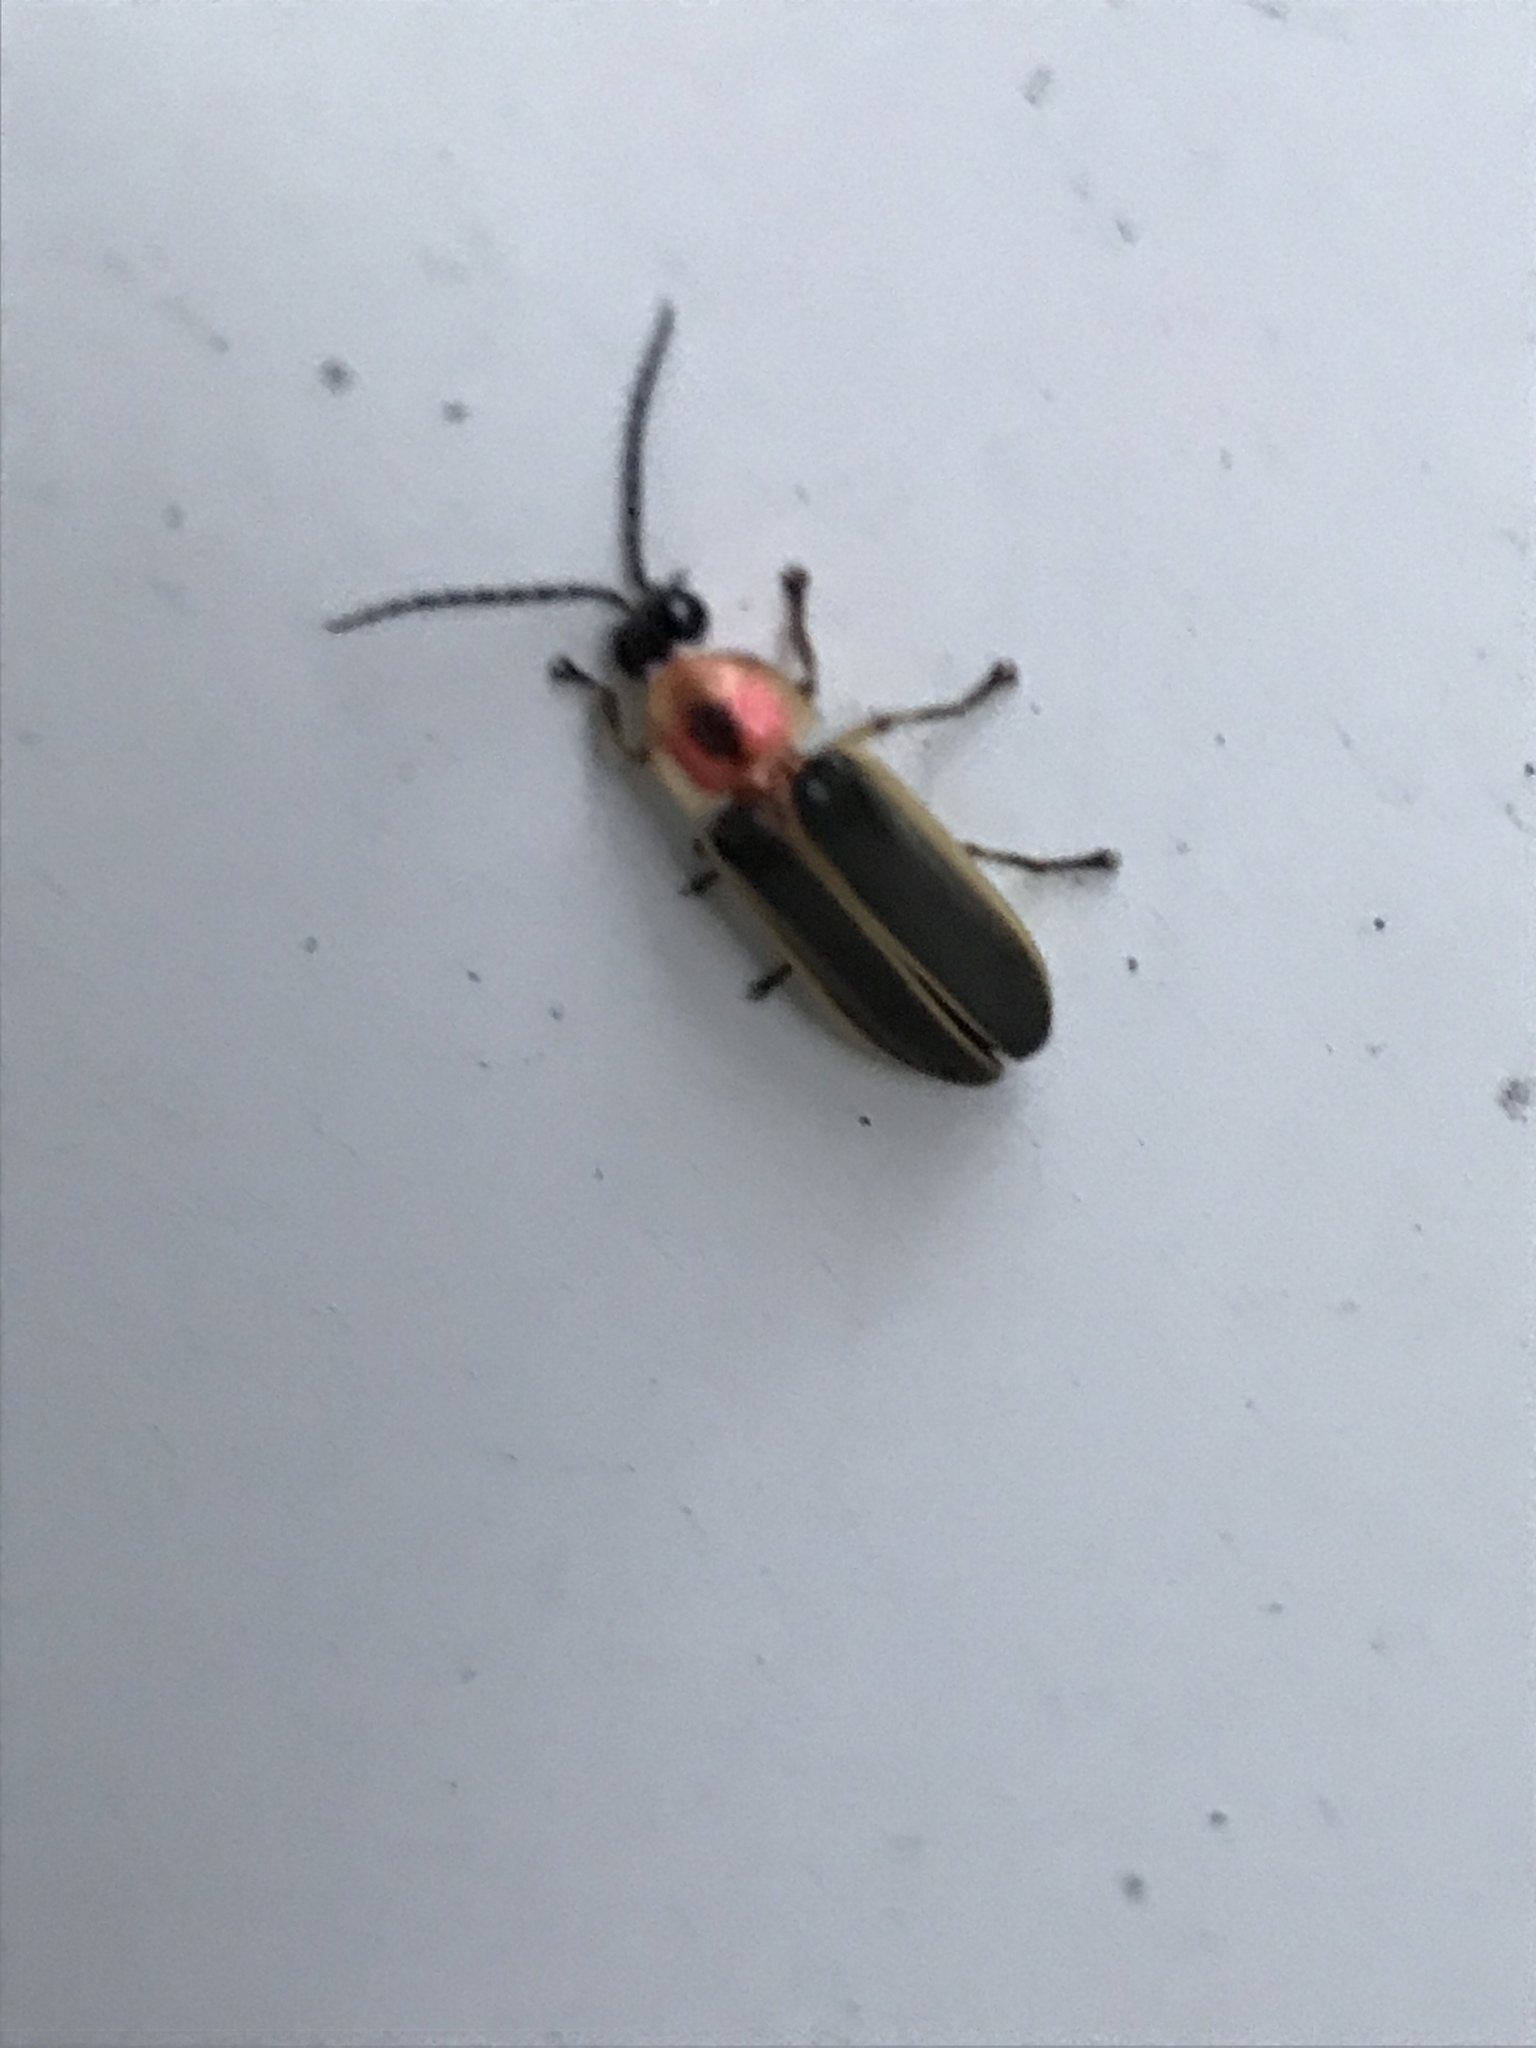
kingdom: Animalia
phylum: Arthropoda
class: Insecta
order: Coleoptera
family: Lampyridae
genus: Photinus
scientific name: Photinus pyralis
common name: Big dipper firefly
